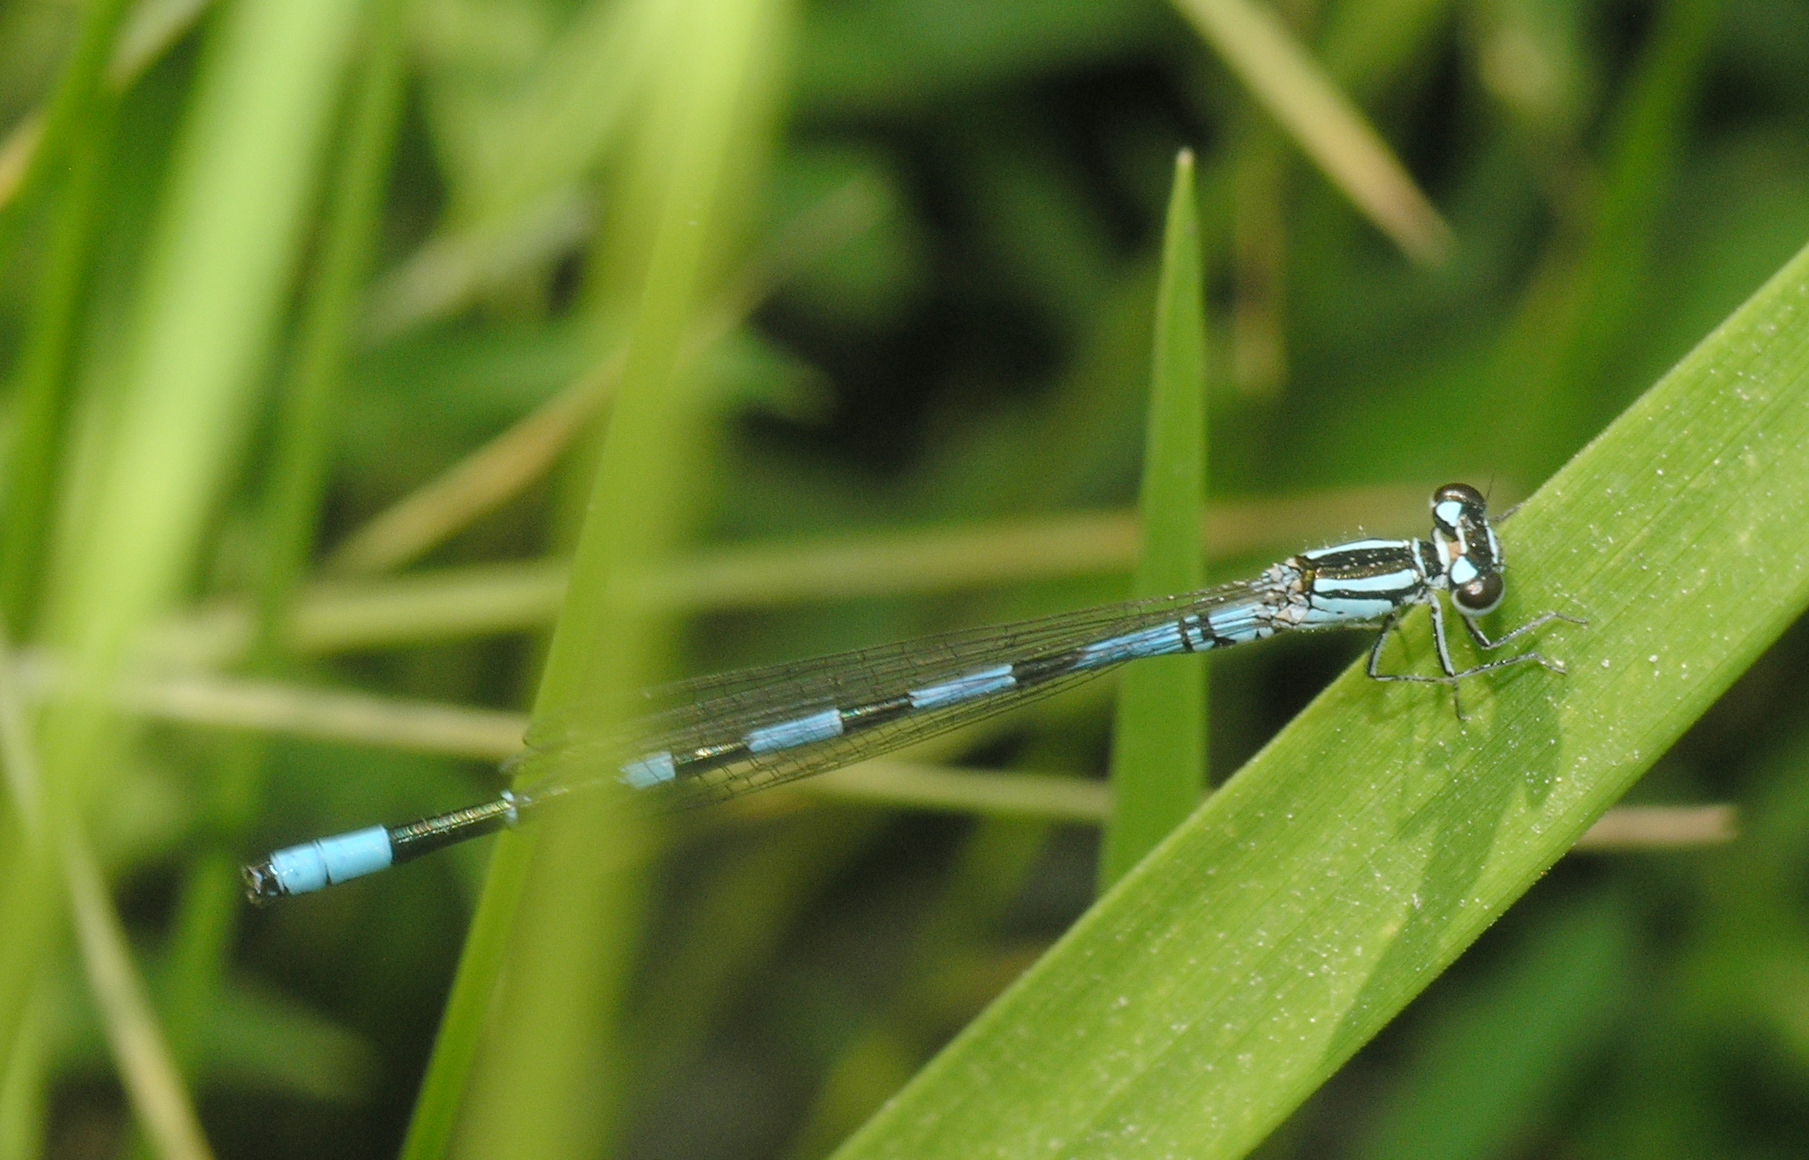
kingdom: Animalia
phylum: Arthropoda
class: Insecta
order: Odonata
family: Coenagrionidae
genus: Coenagrion
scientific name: Coenagrion johanssoni
